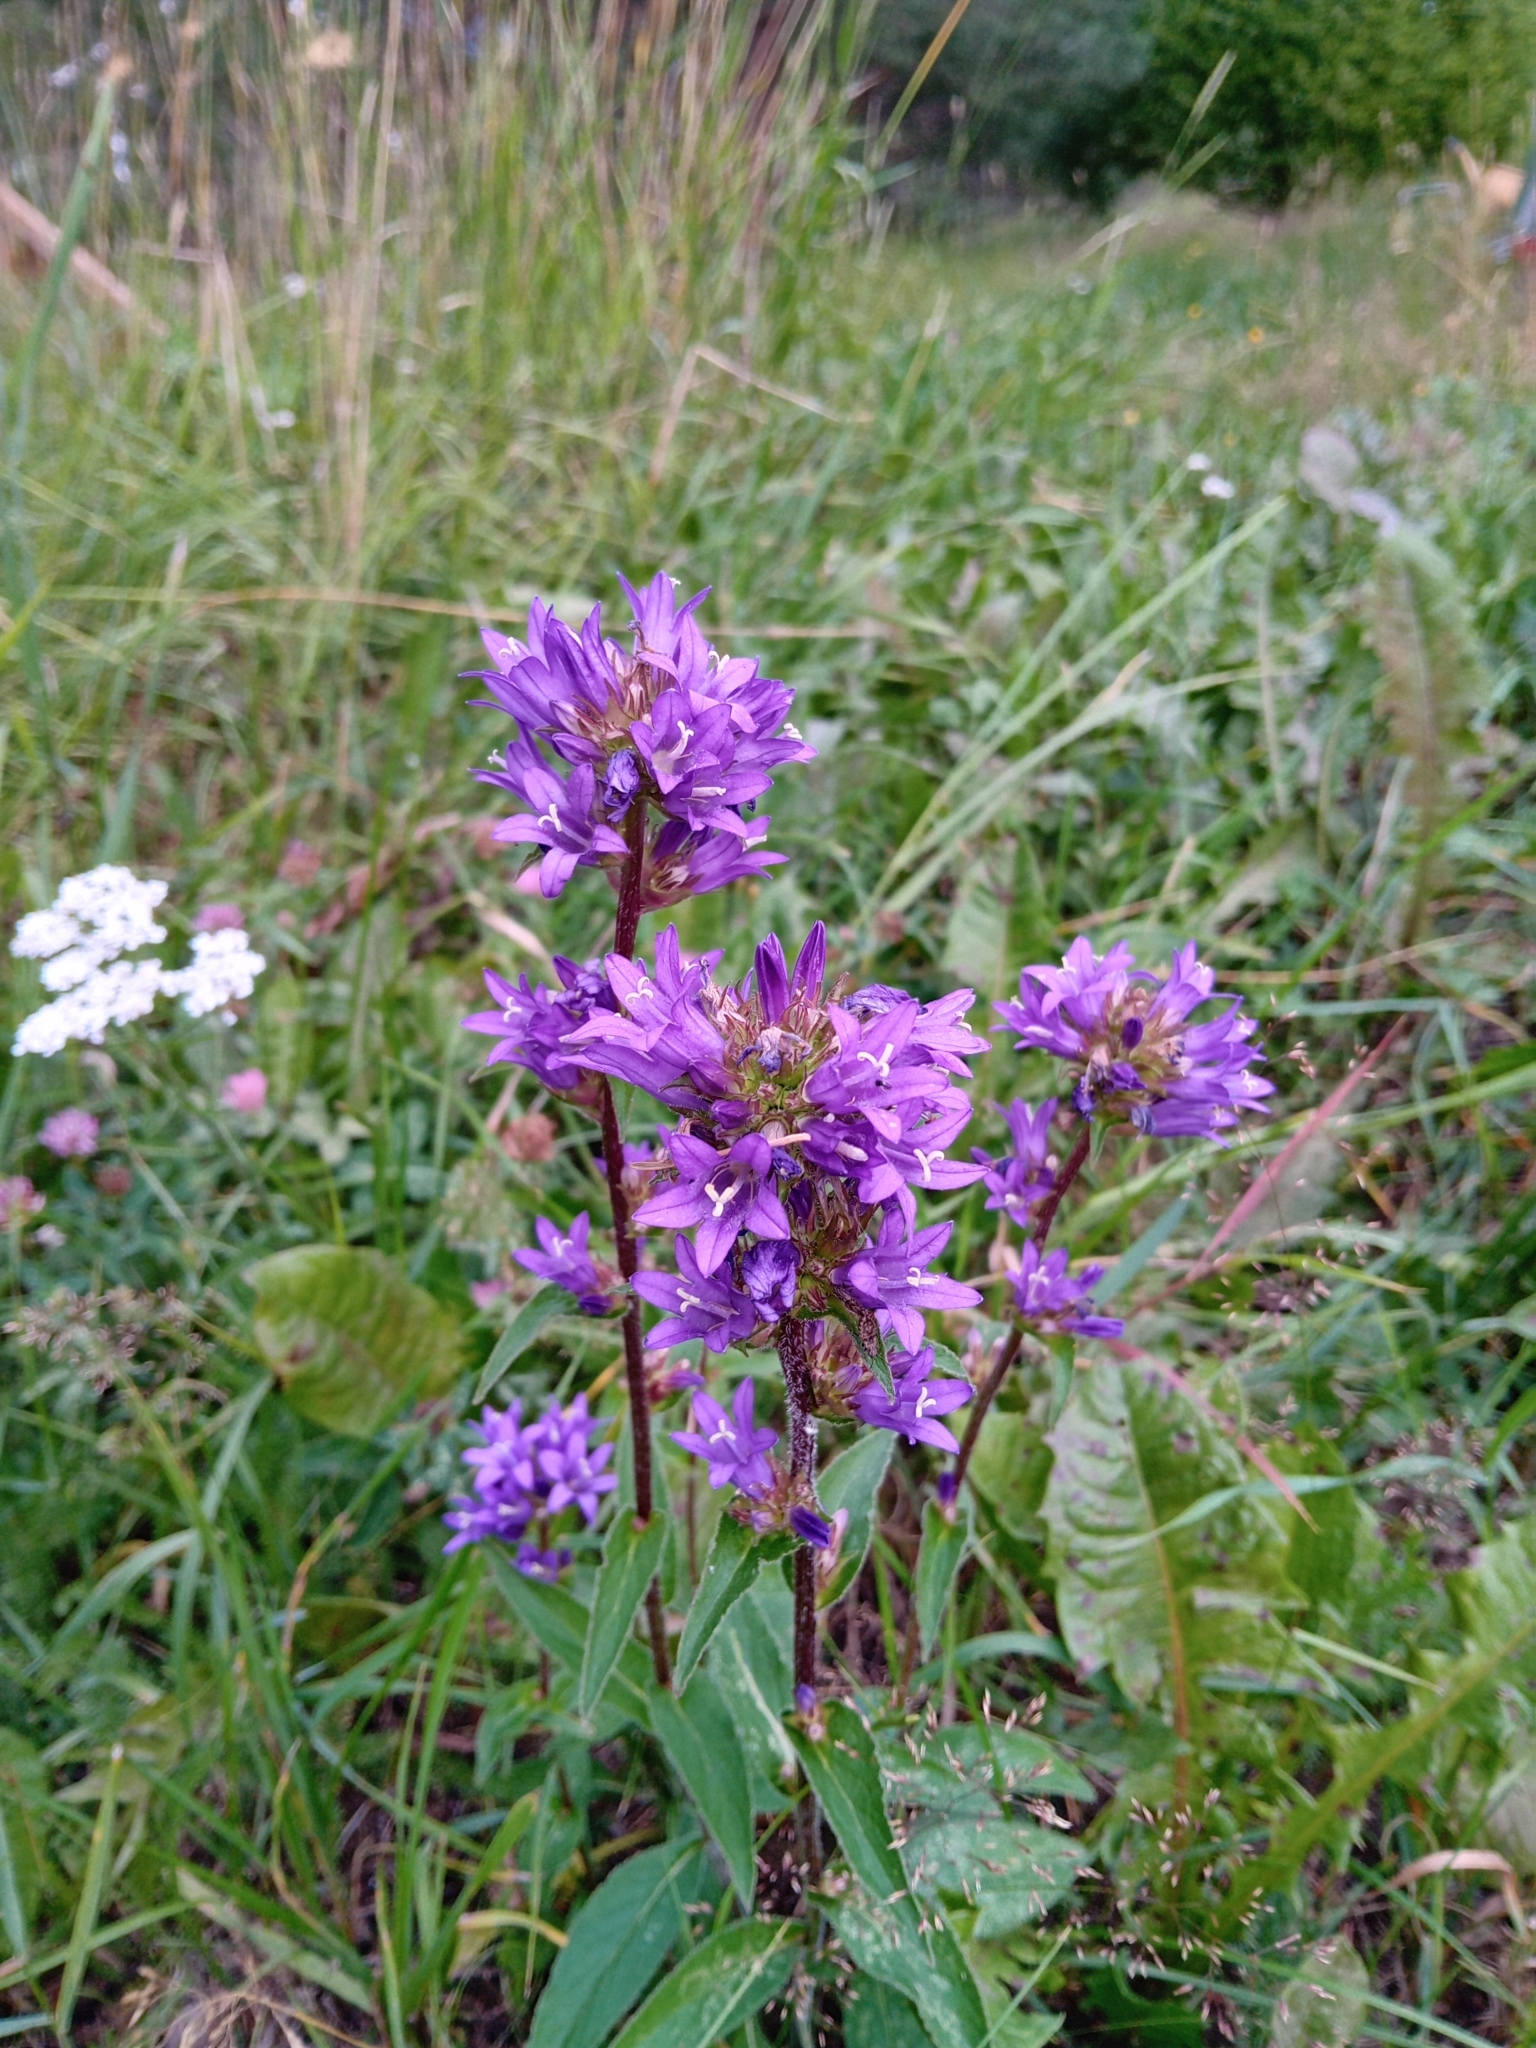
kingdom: Plantae
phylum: Tracheophyta
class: Magnoliopsida
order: Asterales
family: Campanulaceae
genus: Campanula
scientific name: Campanula glomerata
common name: Clustered bellflower
